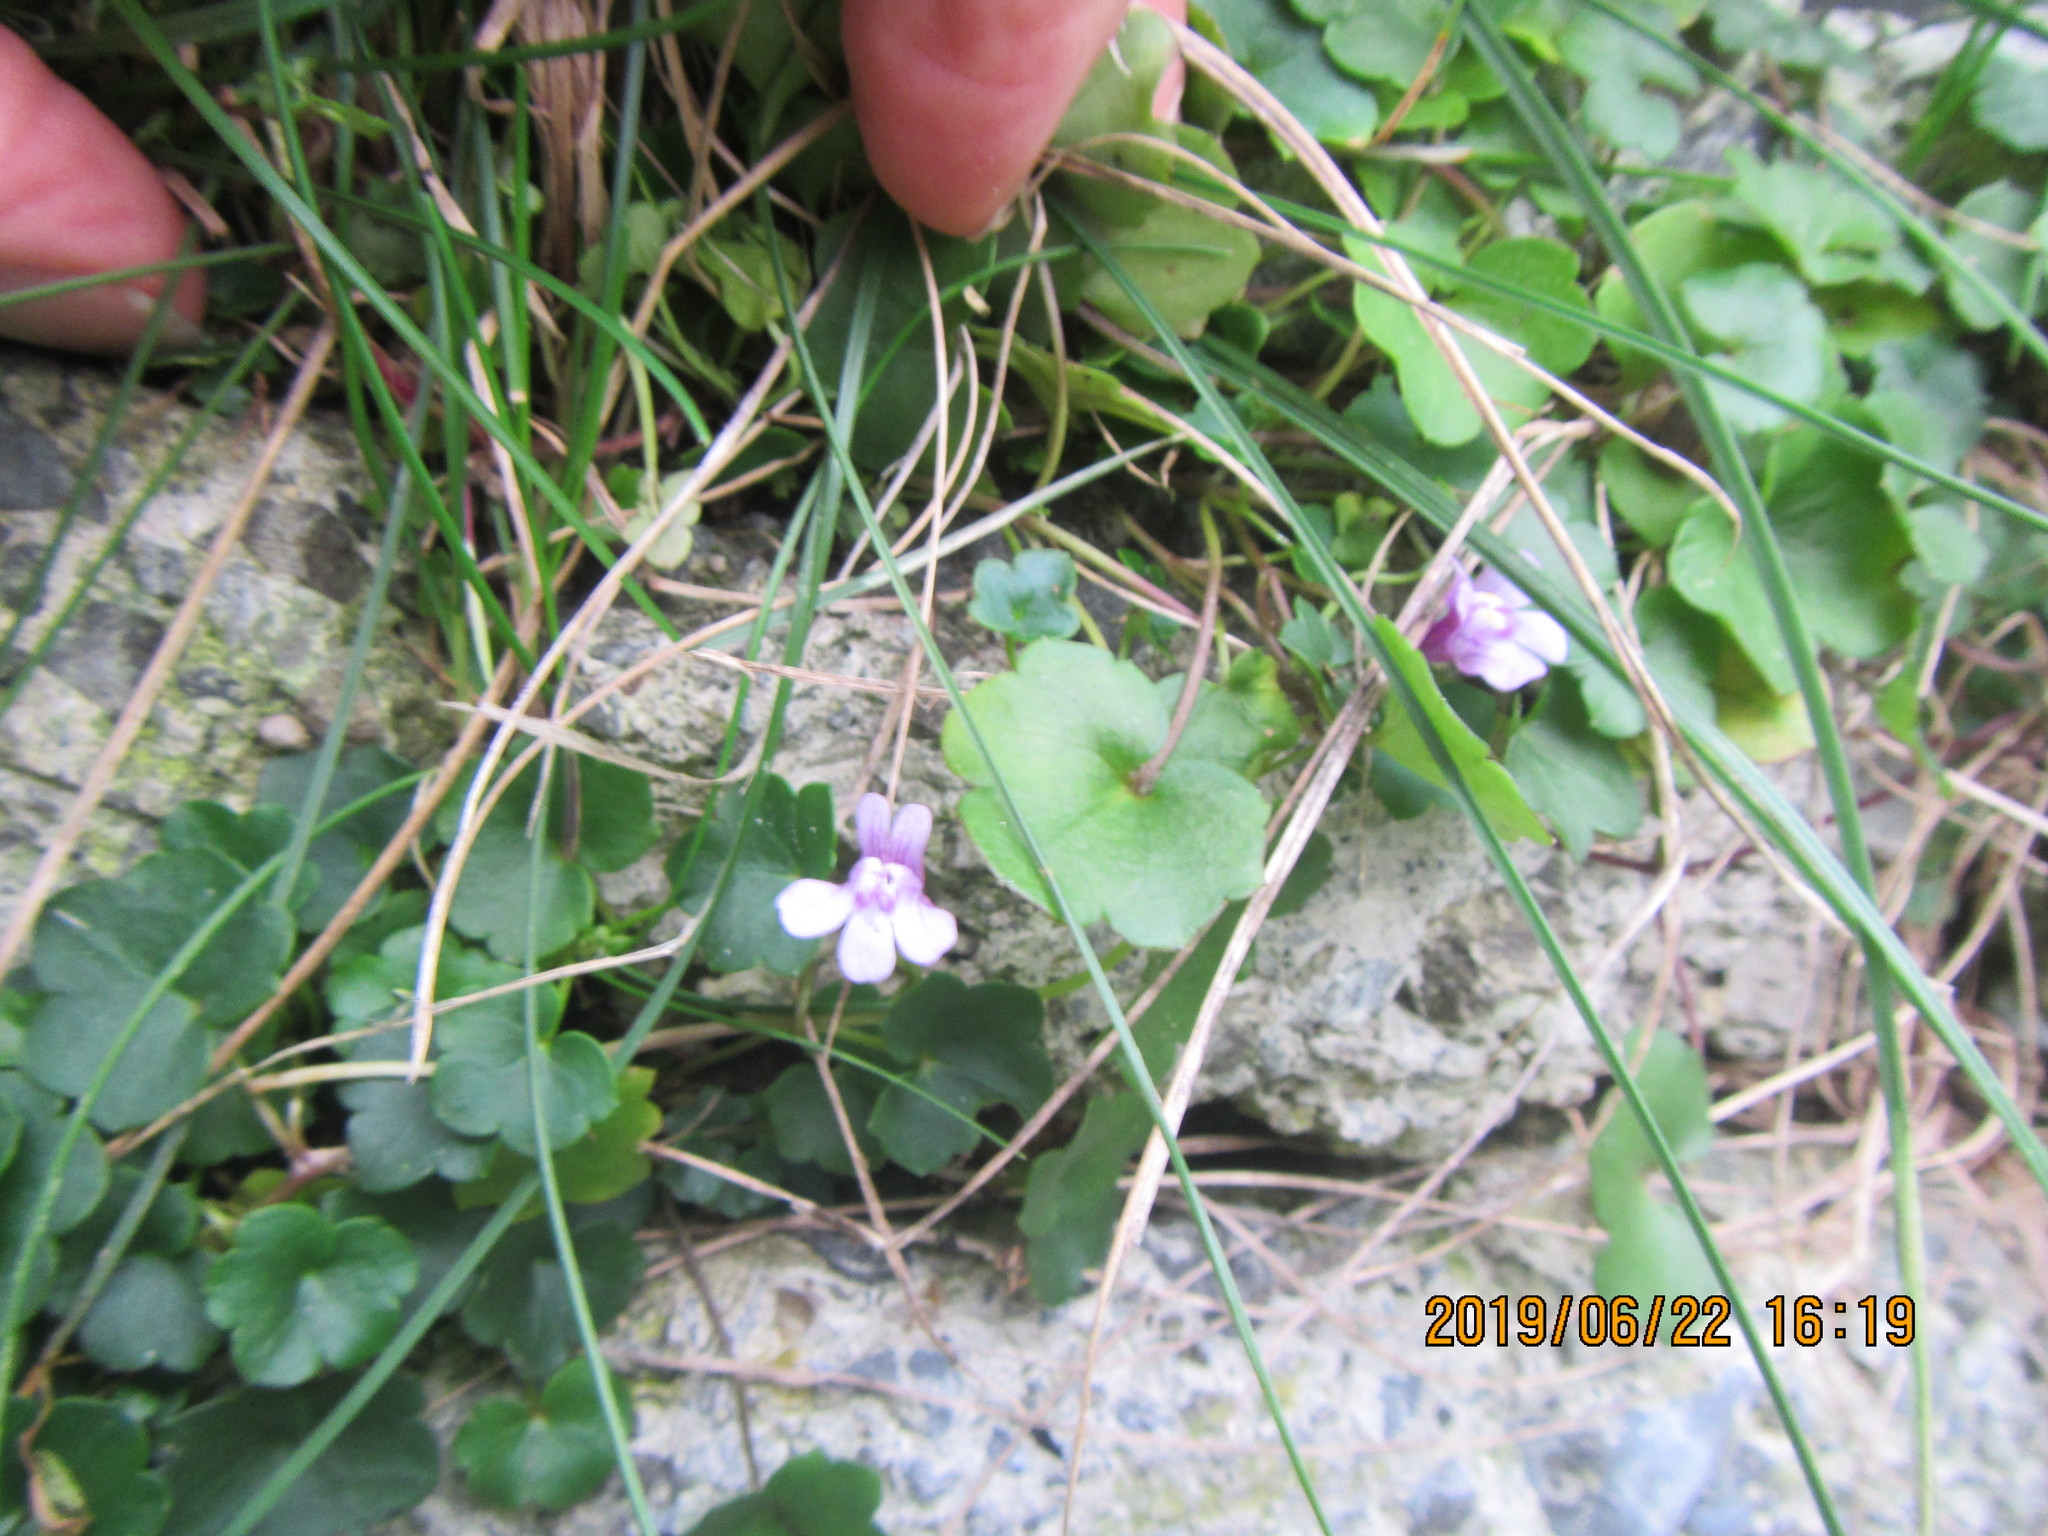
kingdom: Plantae
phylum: Tracheophyta
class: Magnoliopsida
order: Lamiales
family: Plantaginaceae
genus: Cymbalaria
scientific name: Cymbalaria muralis
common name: Ivy-leaved toadflax
